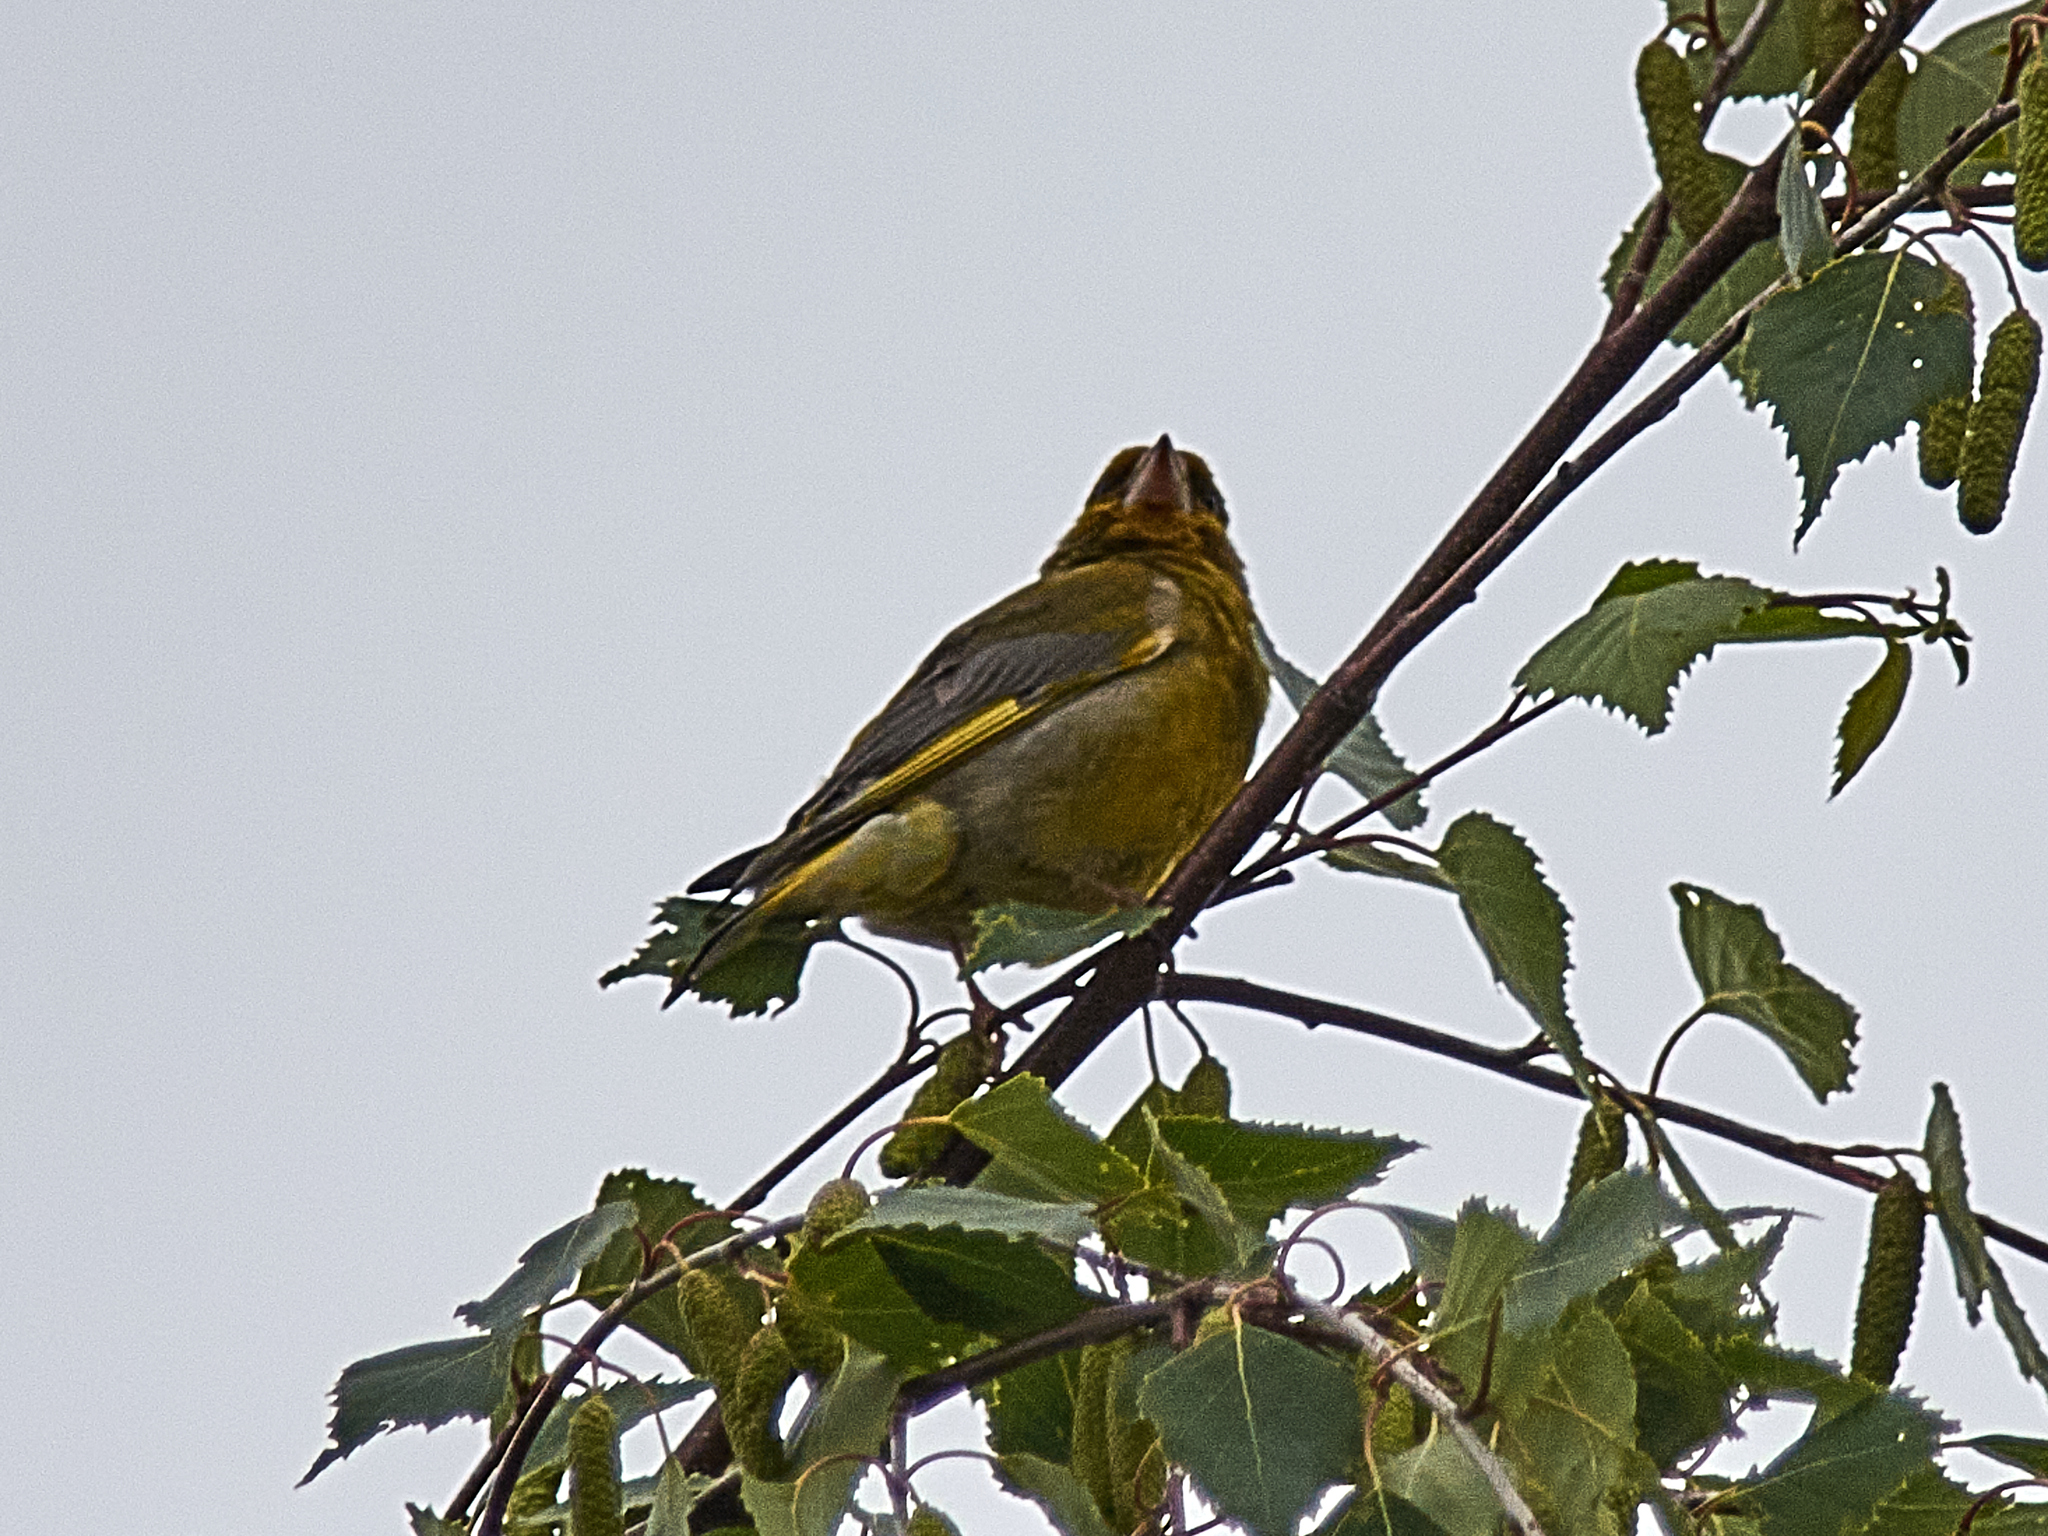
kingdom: Plantae
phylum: Tracheophyta
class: Liliopsida
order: Poales
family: Poaceae
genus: Chloris
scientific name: Chloris chloris
